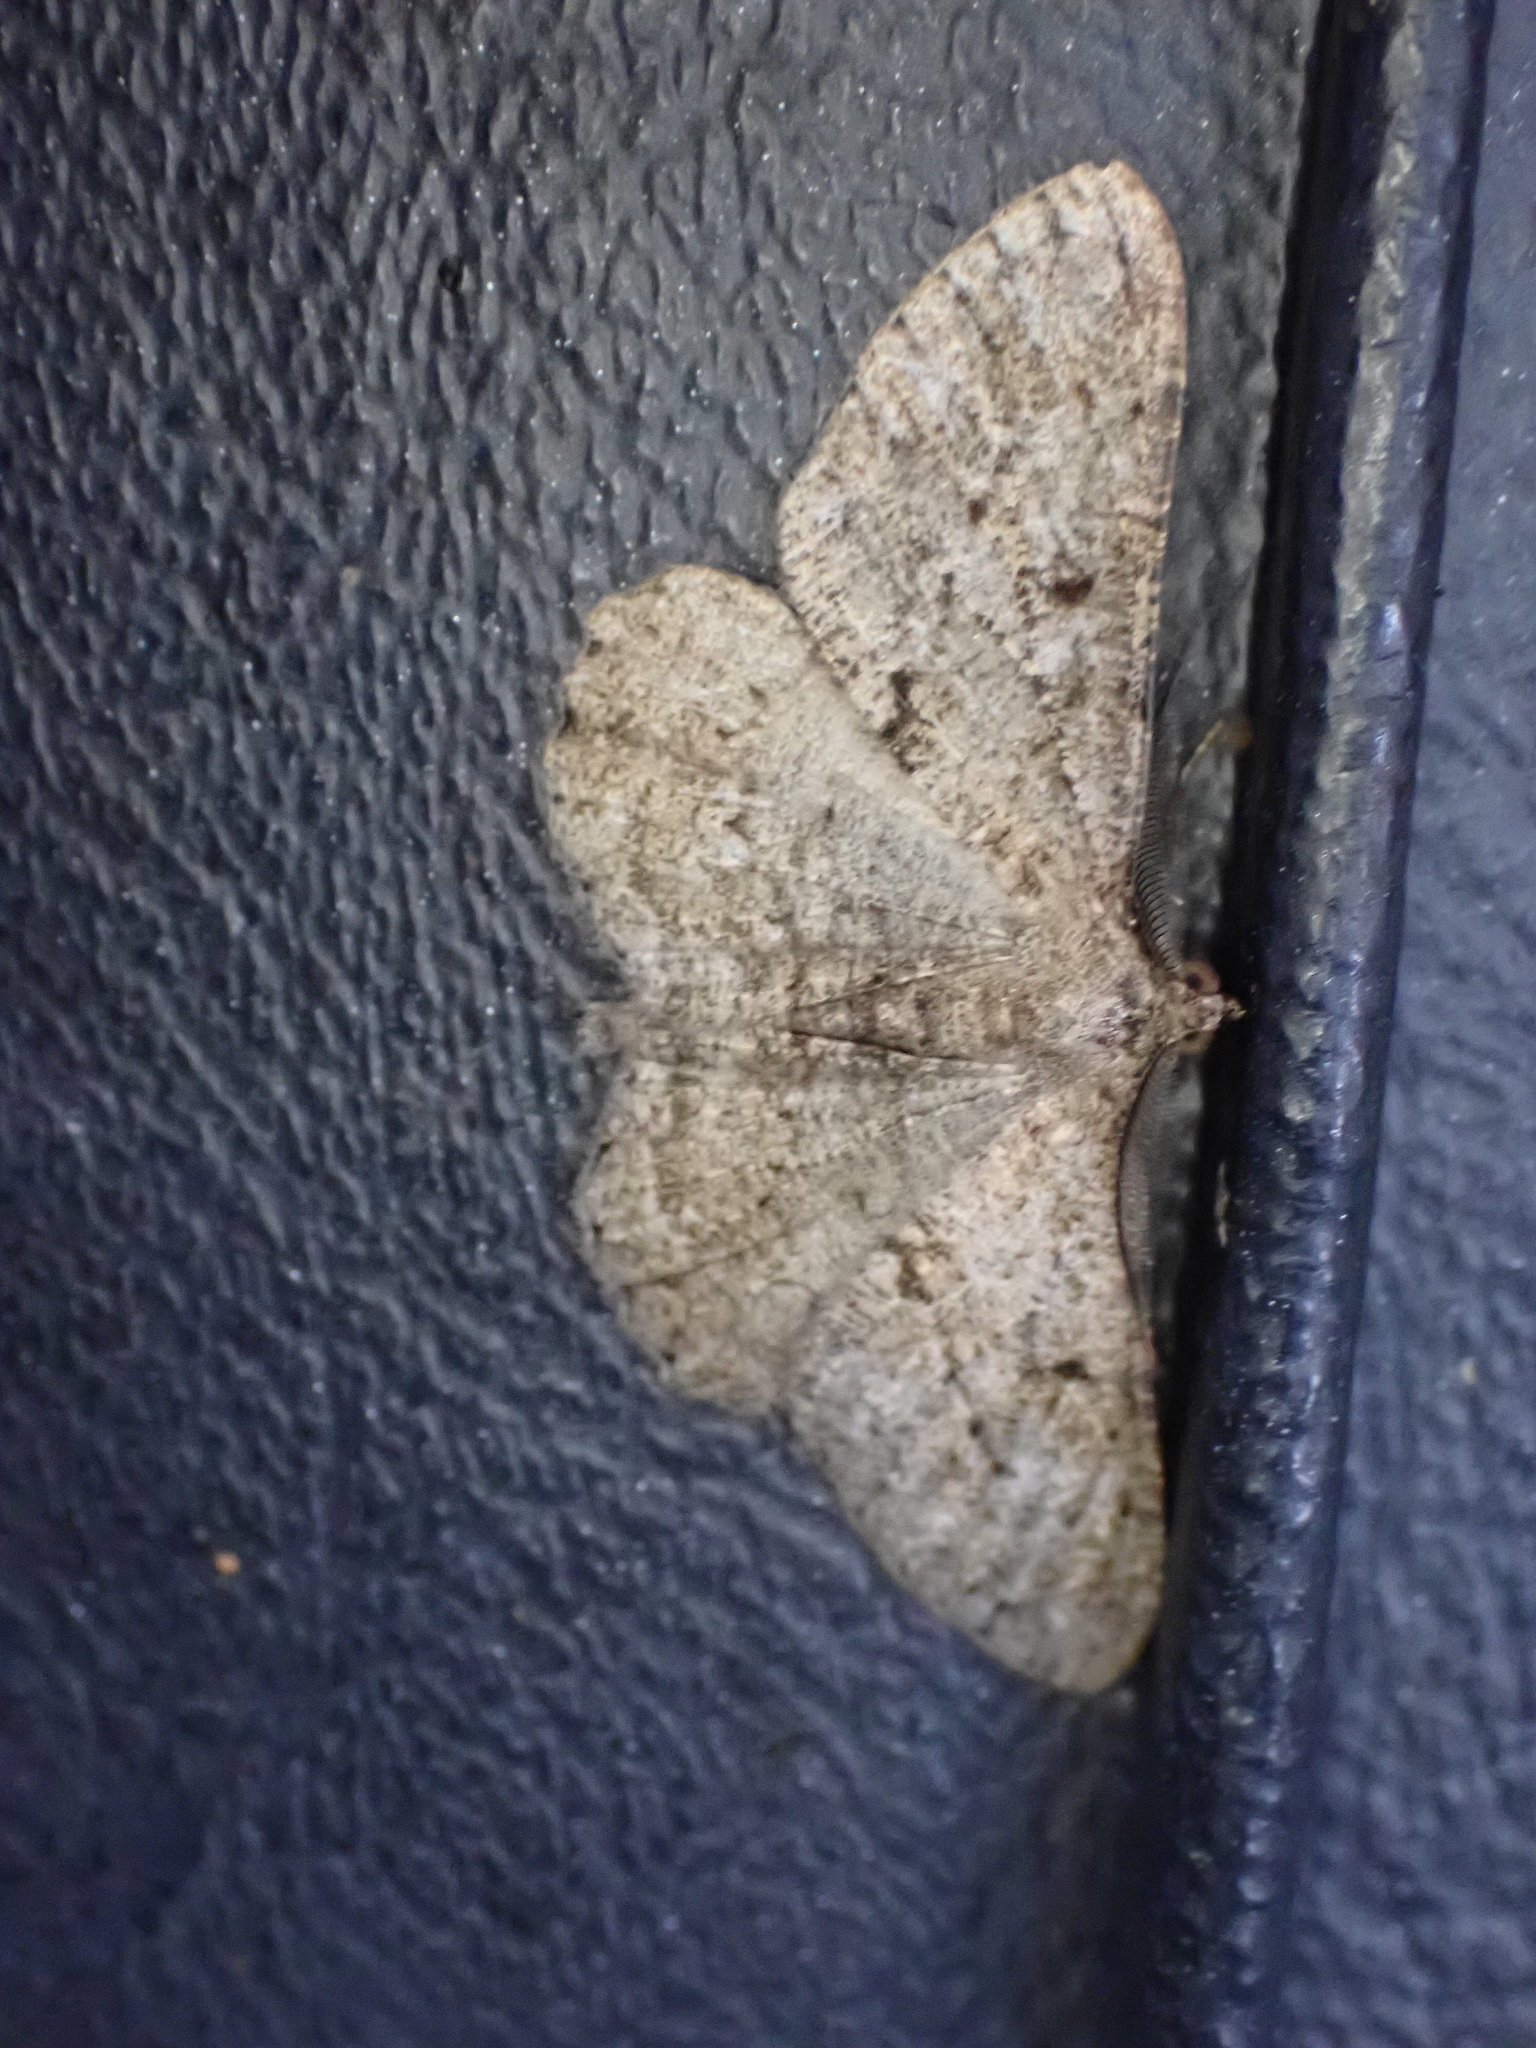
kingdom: Animalia
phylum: Arthropoda
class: Insecta
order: Lepidoptera
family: Geometridae
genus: Peribatodes
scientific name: Peribatodes rhomboidaria
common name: Willow beauty
